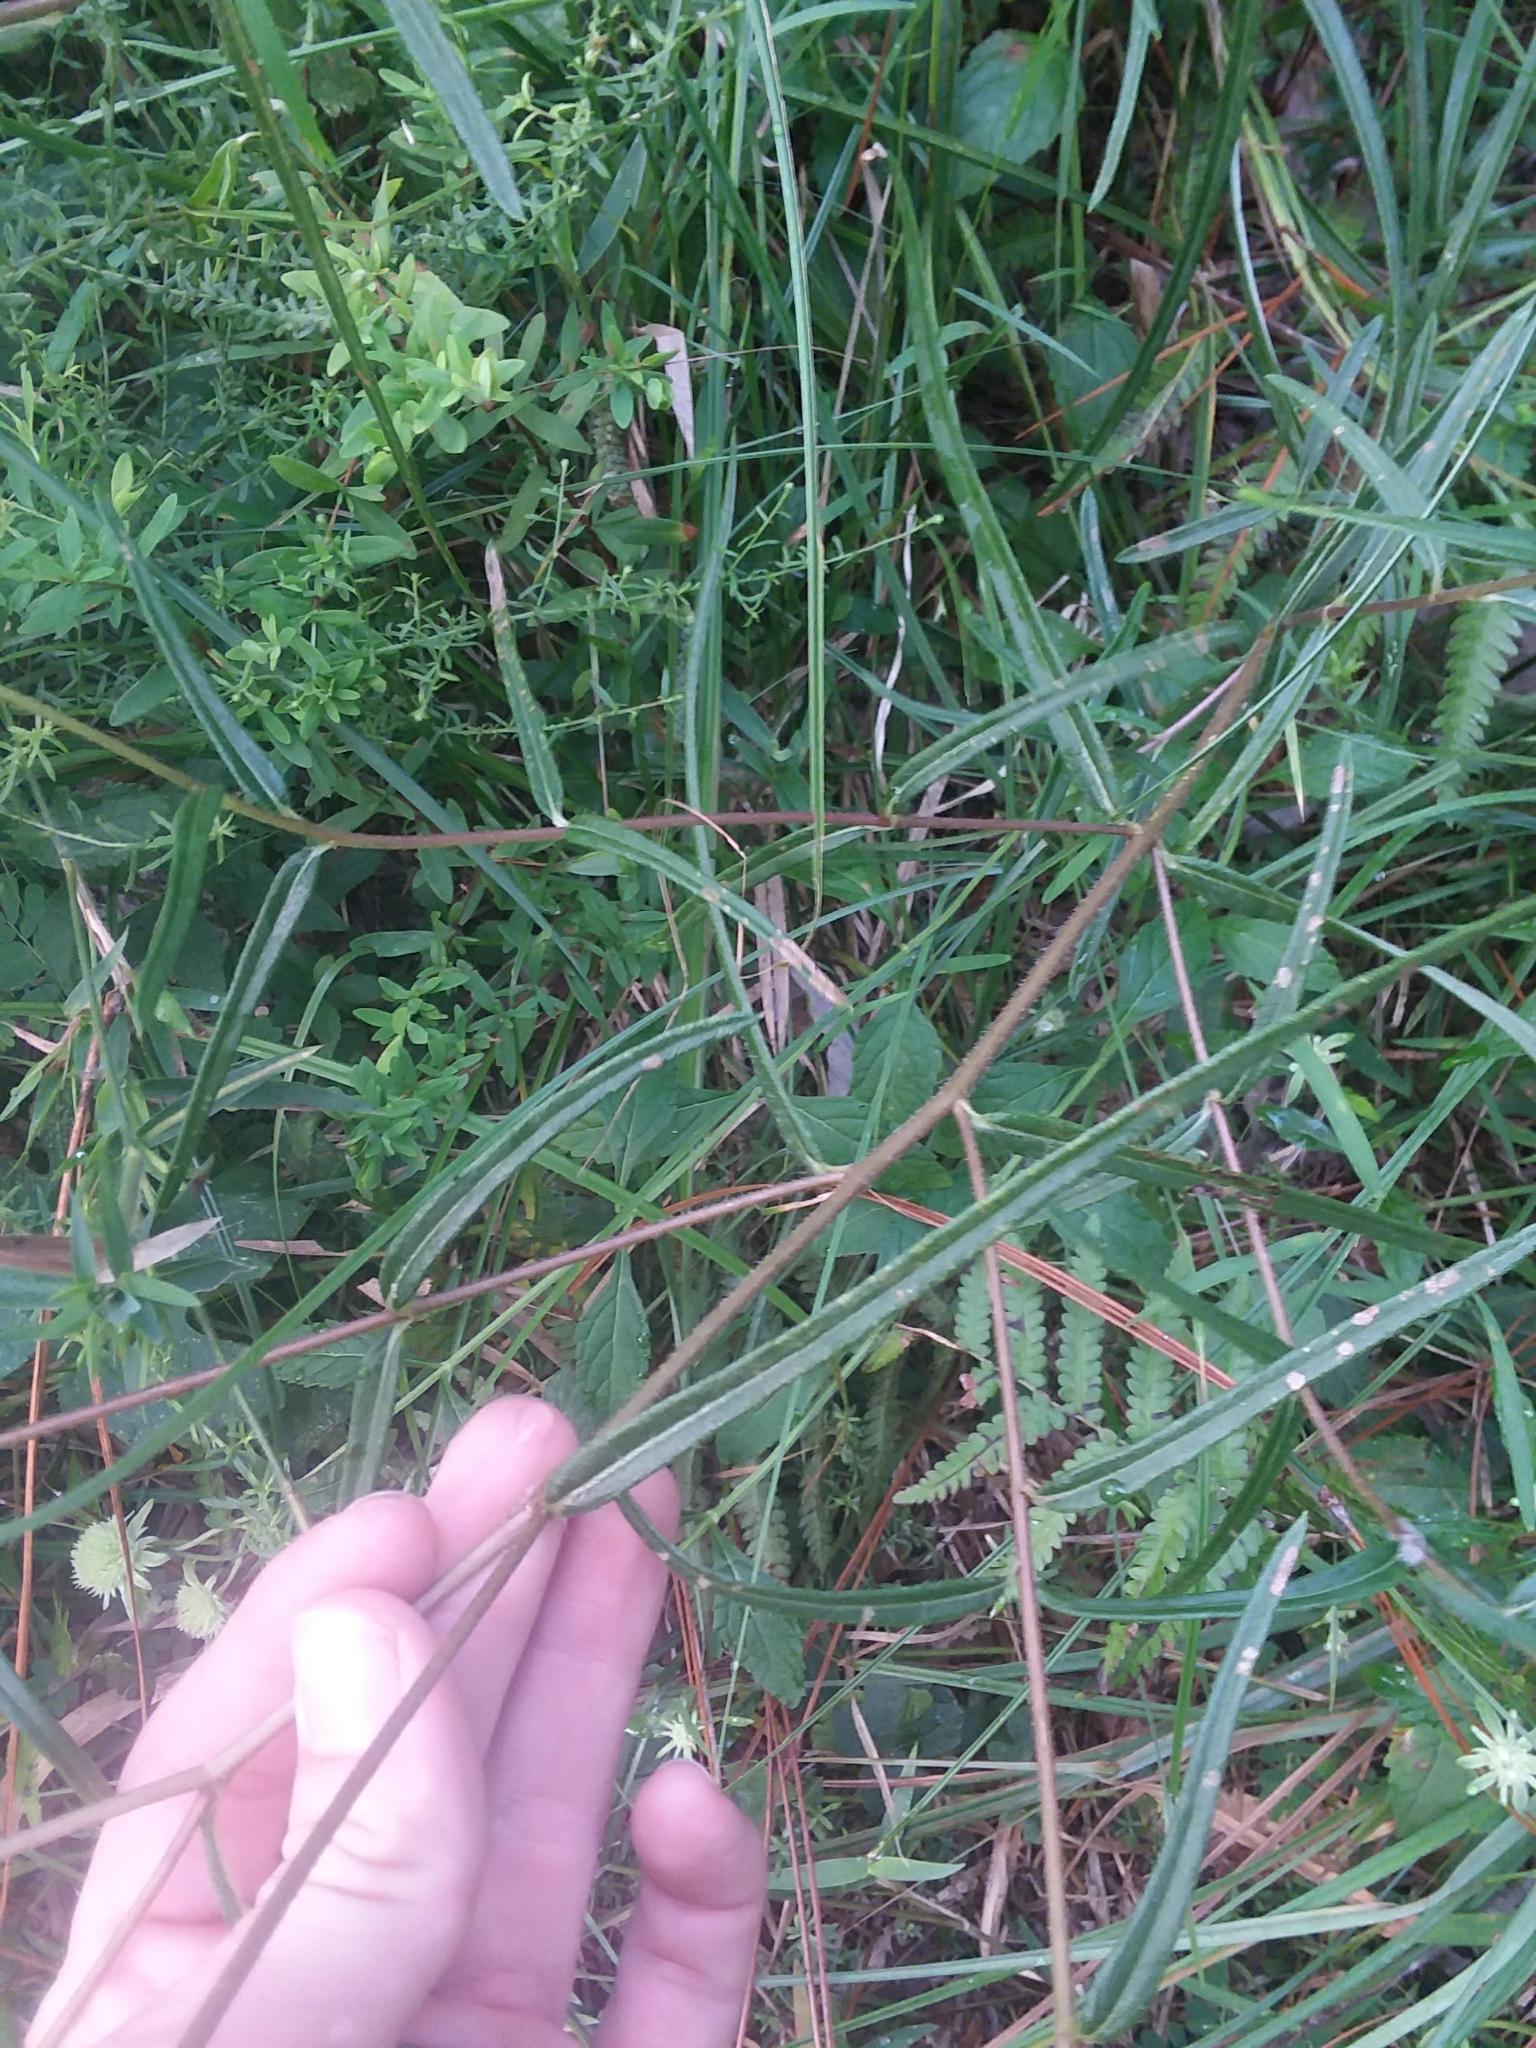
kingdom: Plantae
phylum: Tracheophyta
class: Magnoliopsida
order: Asterales
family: Asteraceae
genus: Helianthus
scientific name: Helianthus angustifolius
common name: Swamp sunflower
